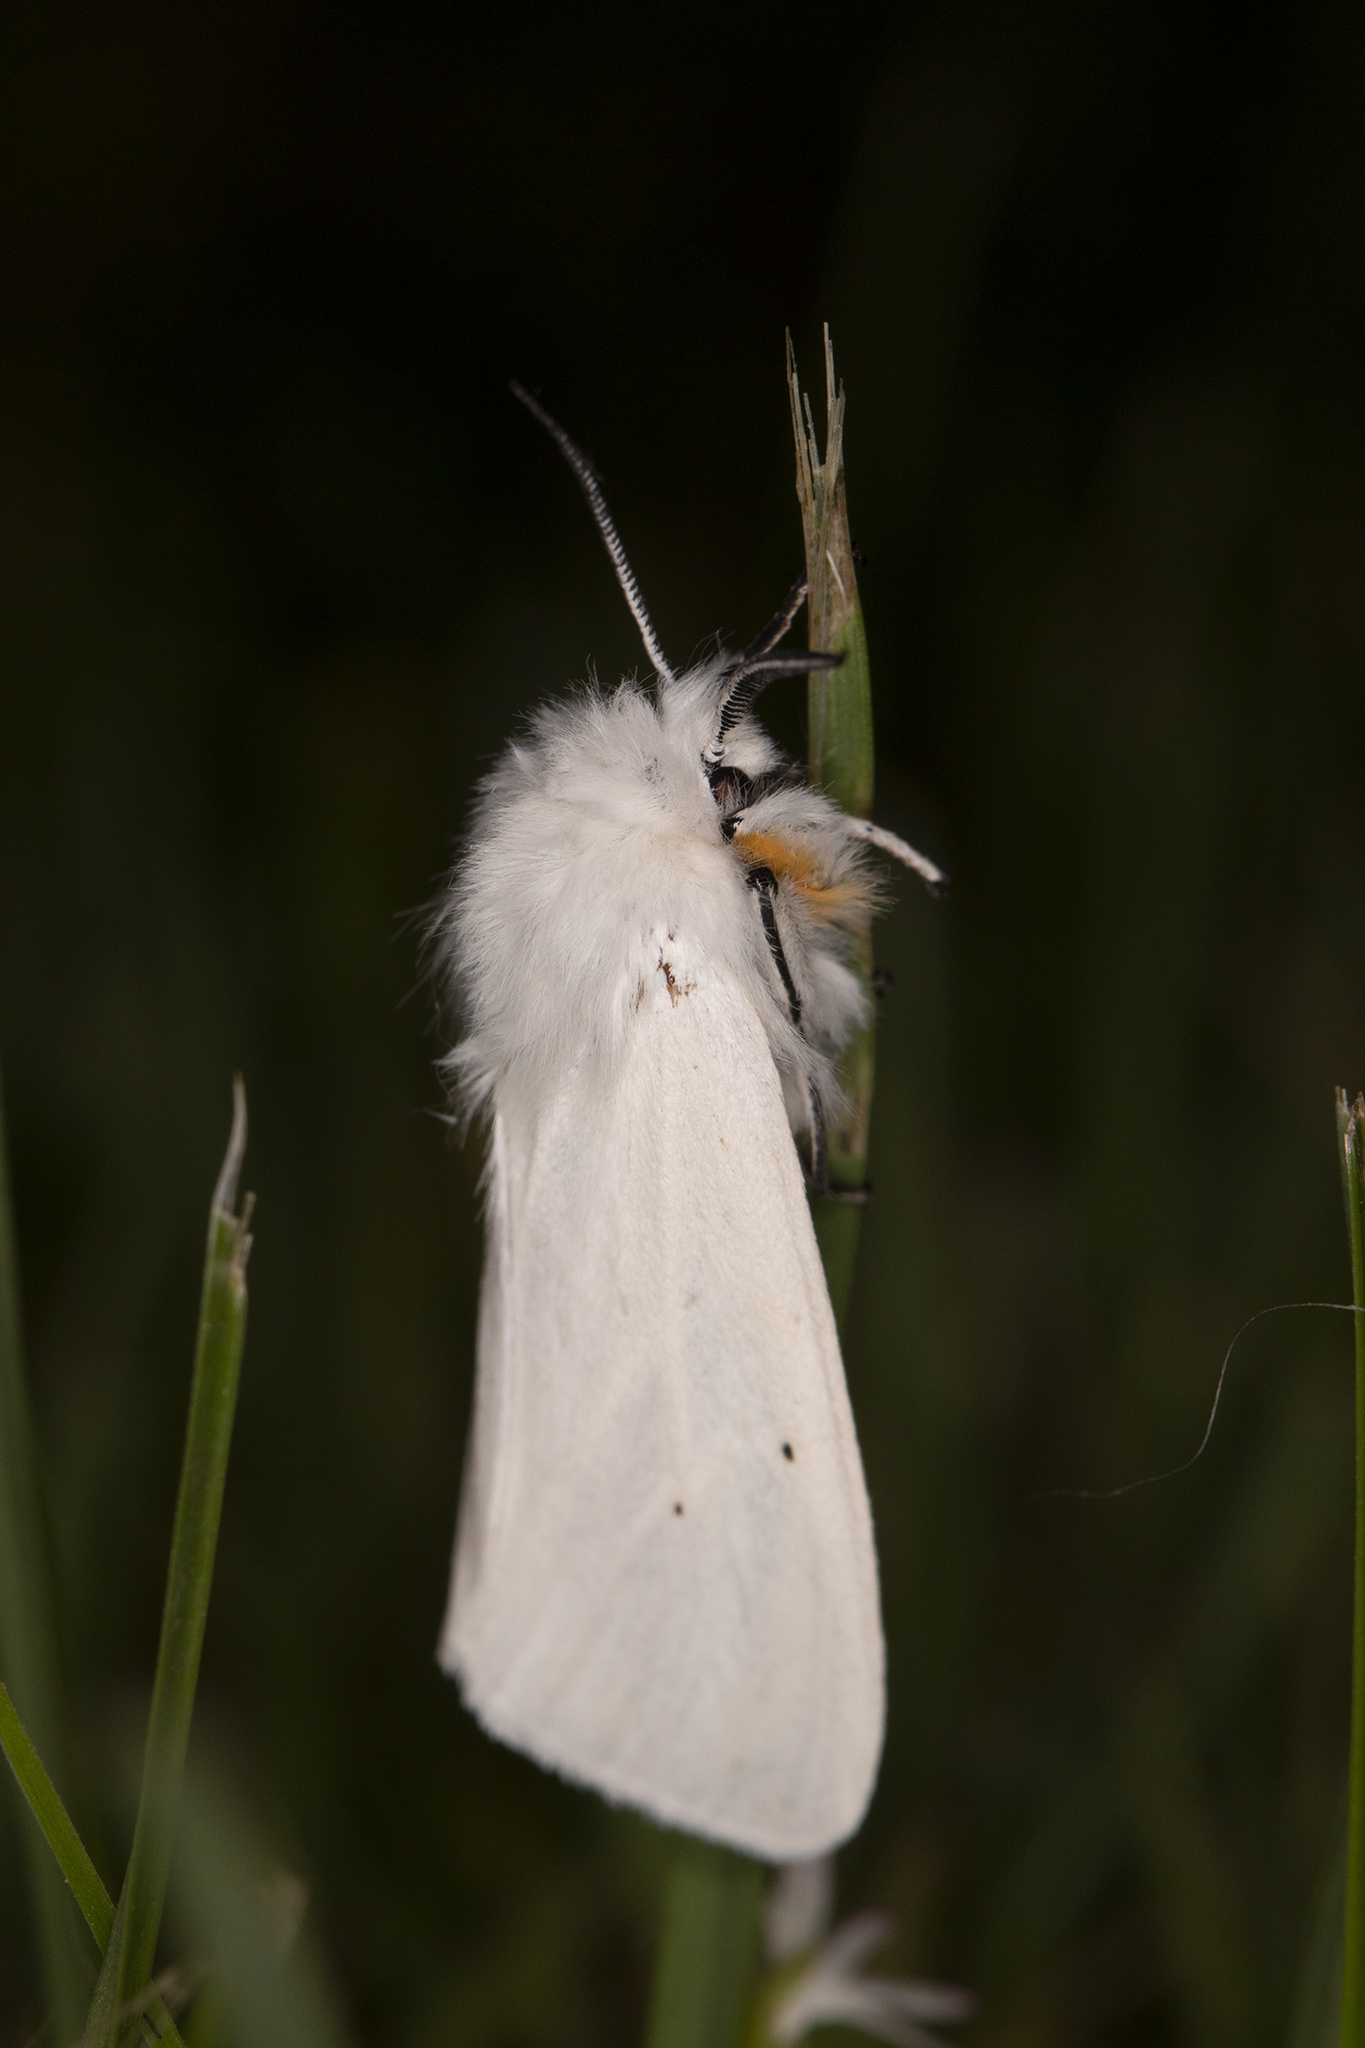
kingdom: Animalia
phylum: Arthropoda
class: Insecta
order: Lepidoptera
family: Erebidae
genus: Spilosoma
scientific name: Spilosoma urticae
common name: Water ermine
